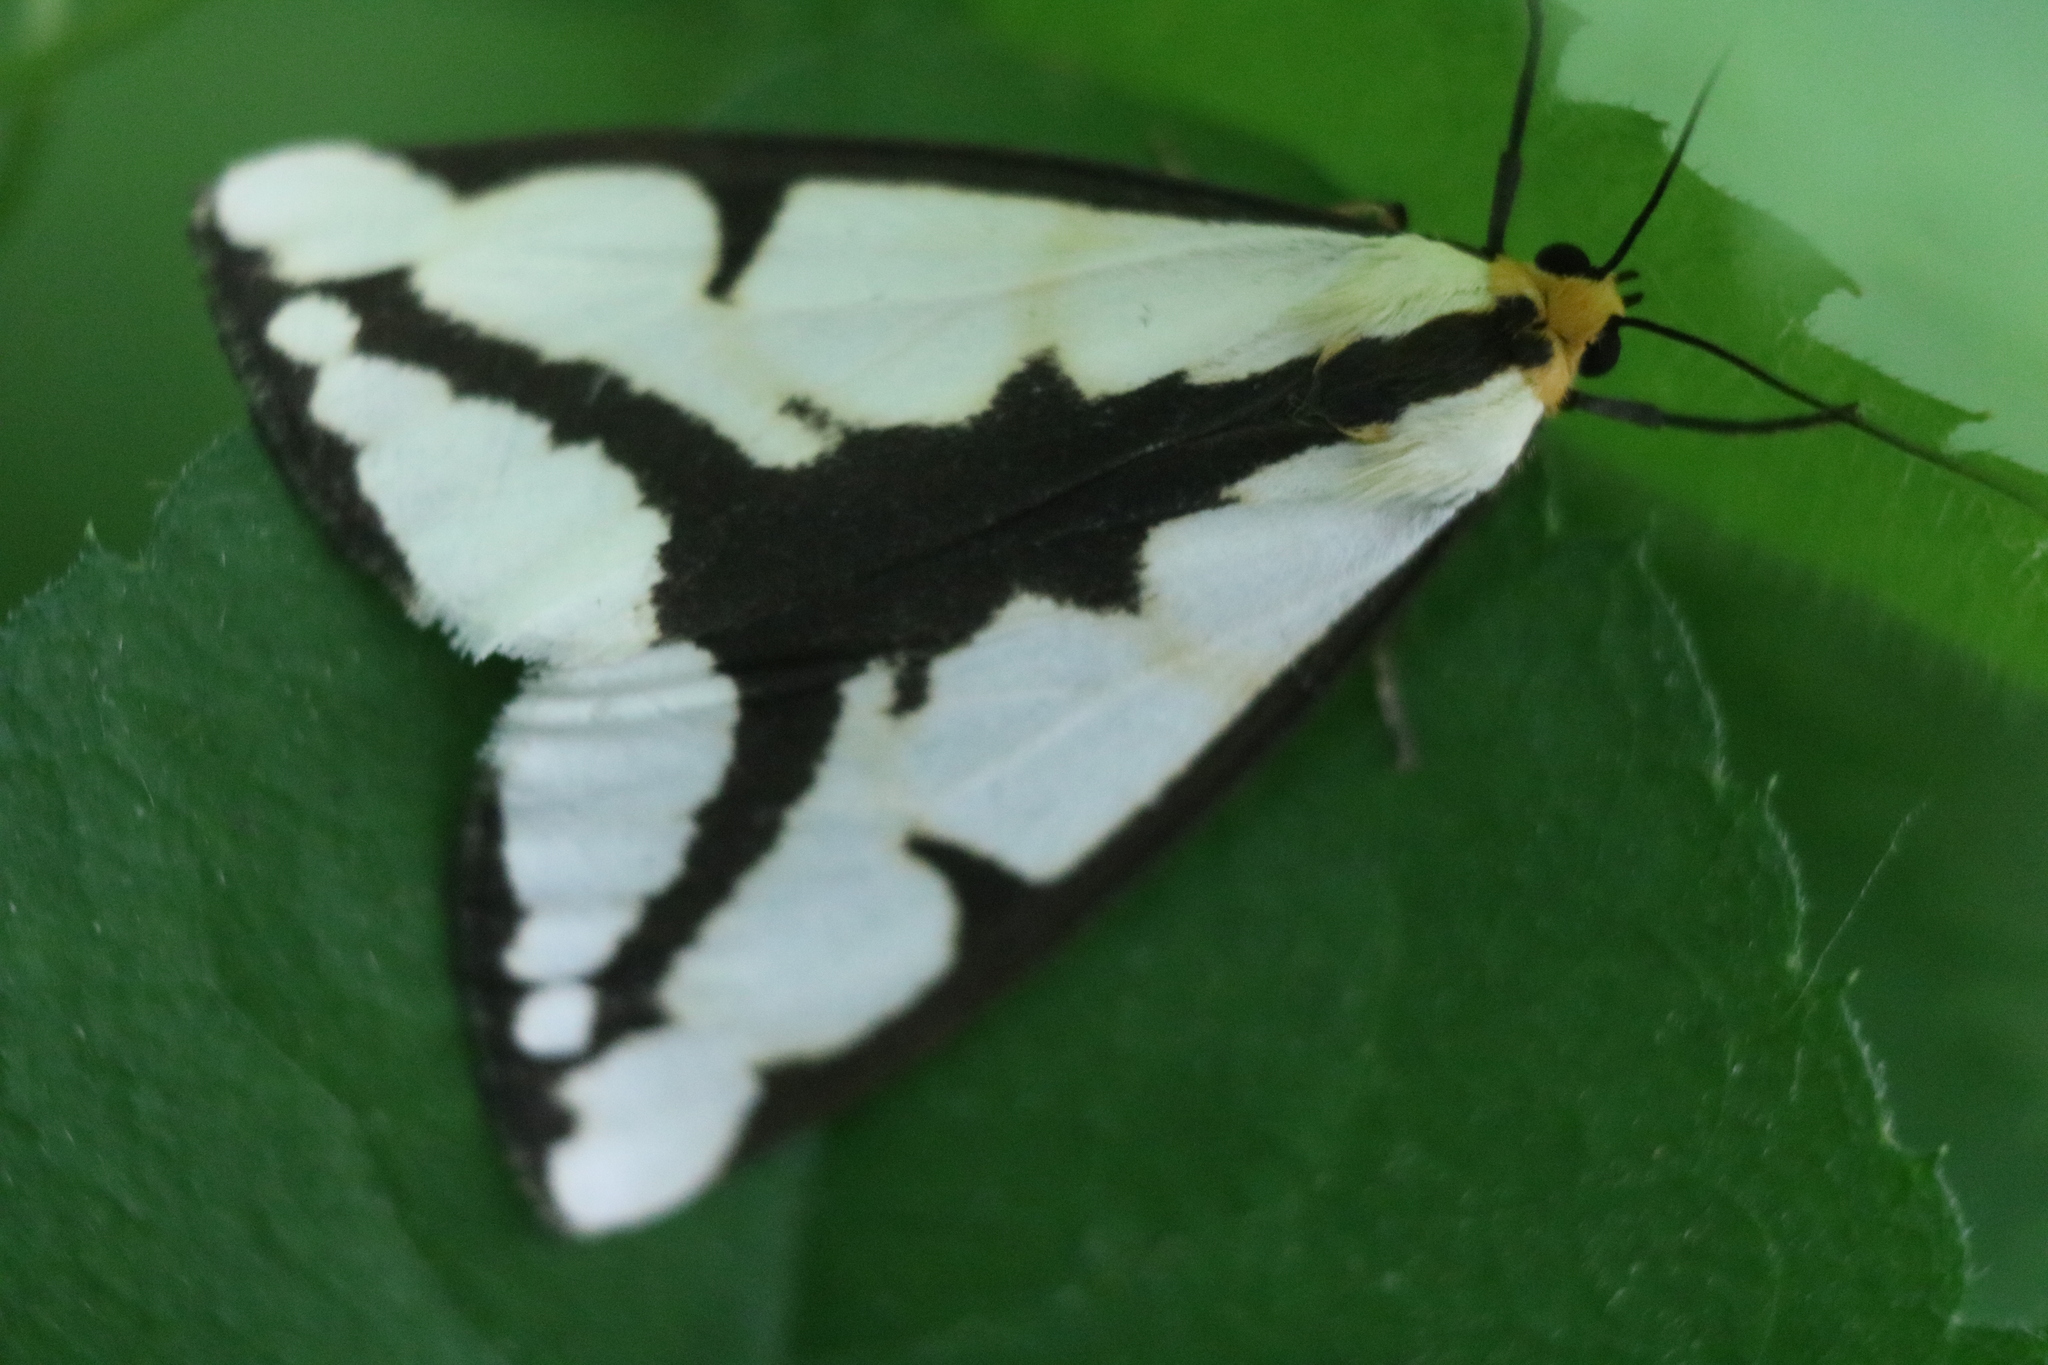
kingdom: Animalia
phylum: Arthropoda
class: Insecta
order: Lepidoptera
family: Erebidae
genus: Haploa
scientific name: Haploa lecontei
